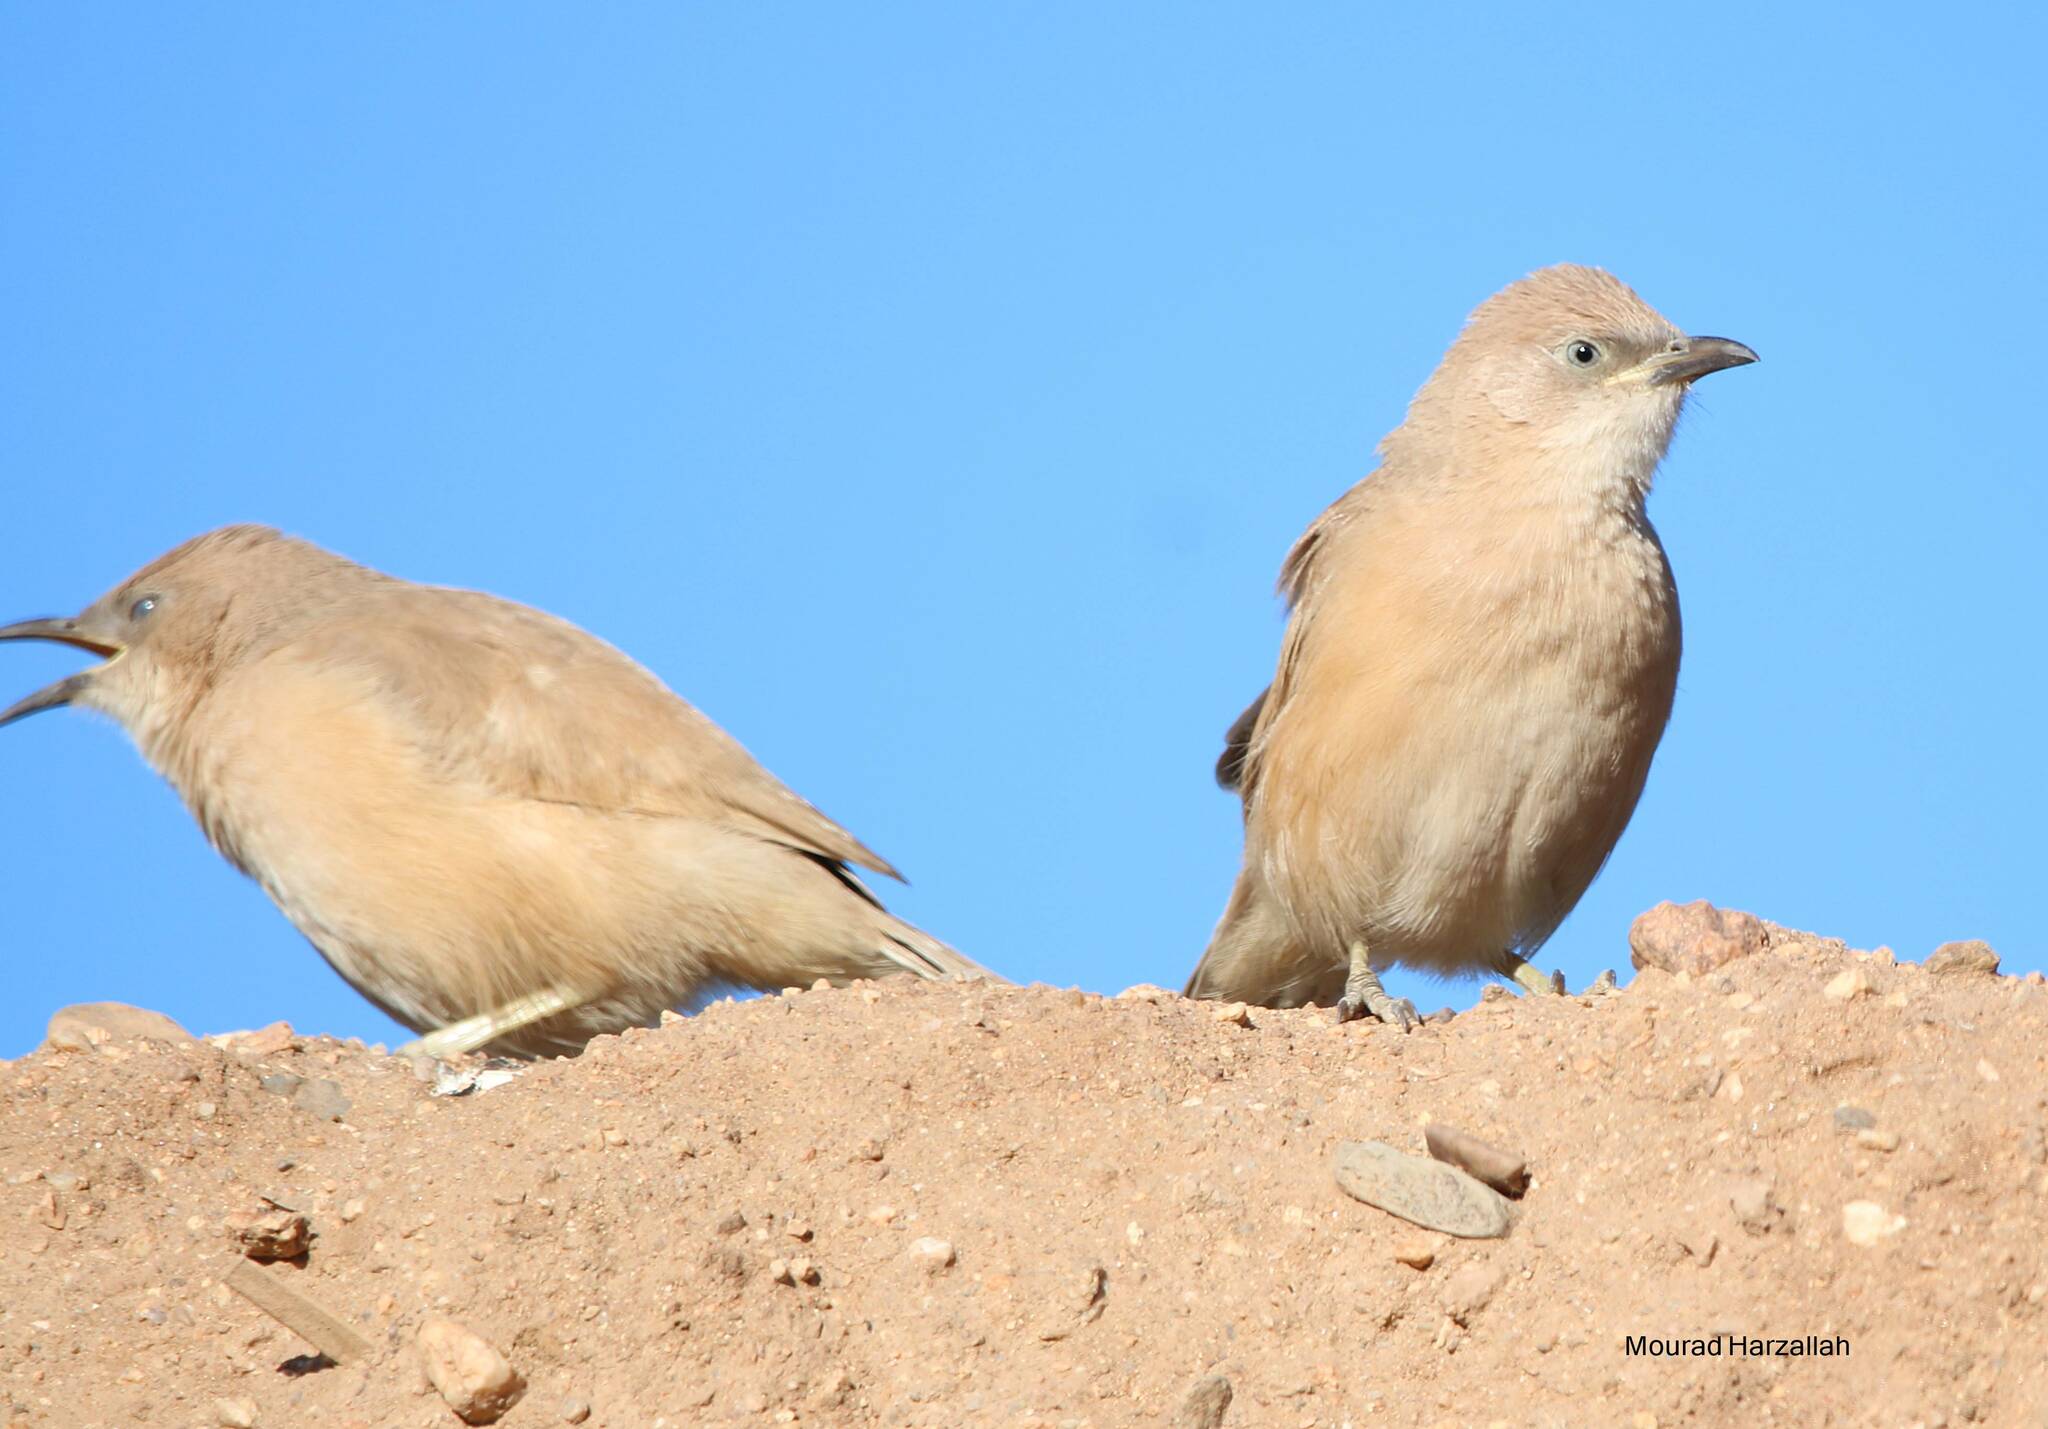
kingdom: Animalia
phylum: Chordata
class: Aves
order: Passeriformes
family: Leiothrichidae
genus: Turdoides
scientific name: Turdoides fulva
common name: Fulvous babbler
